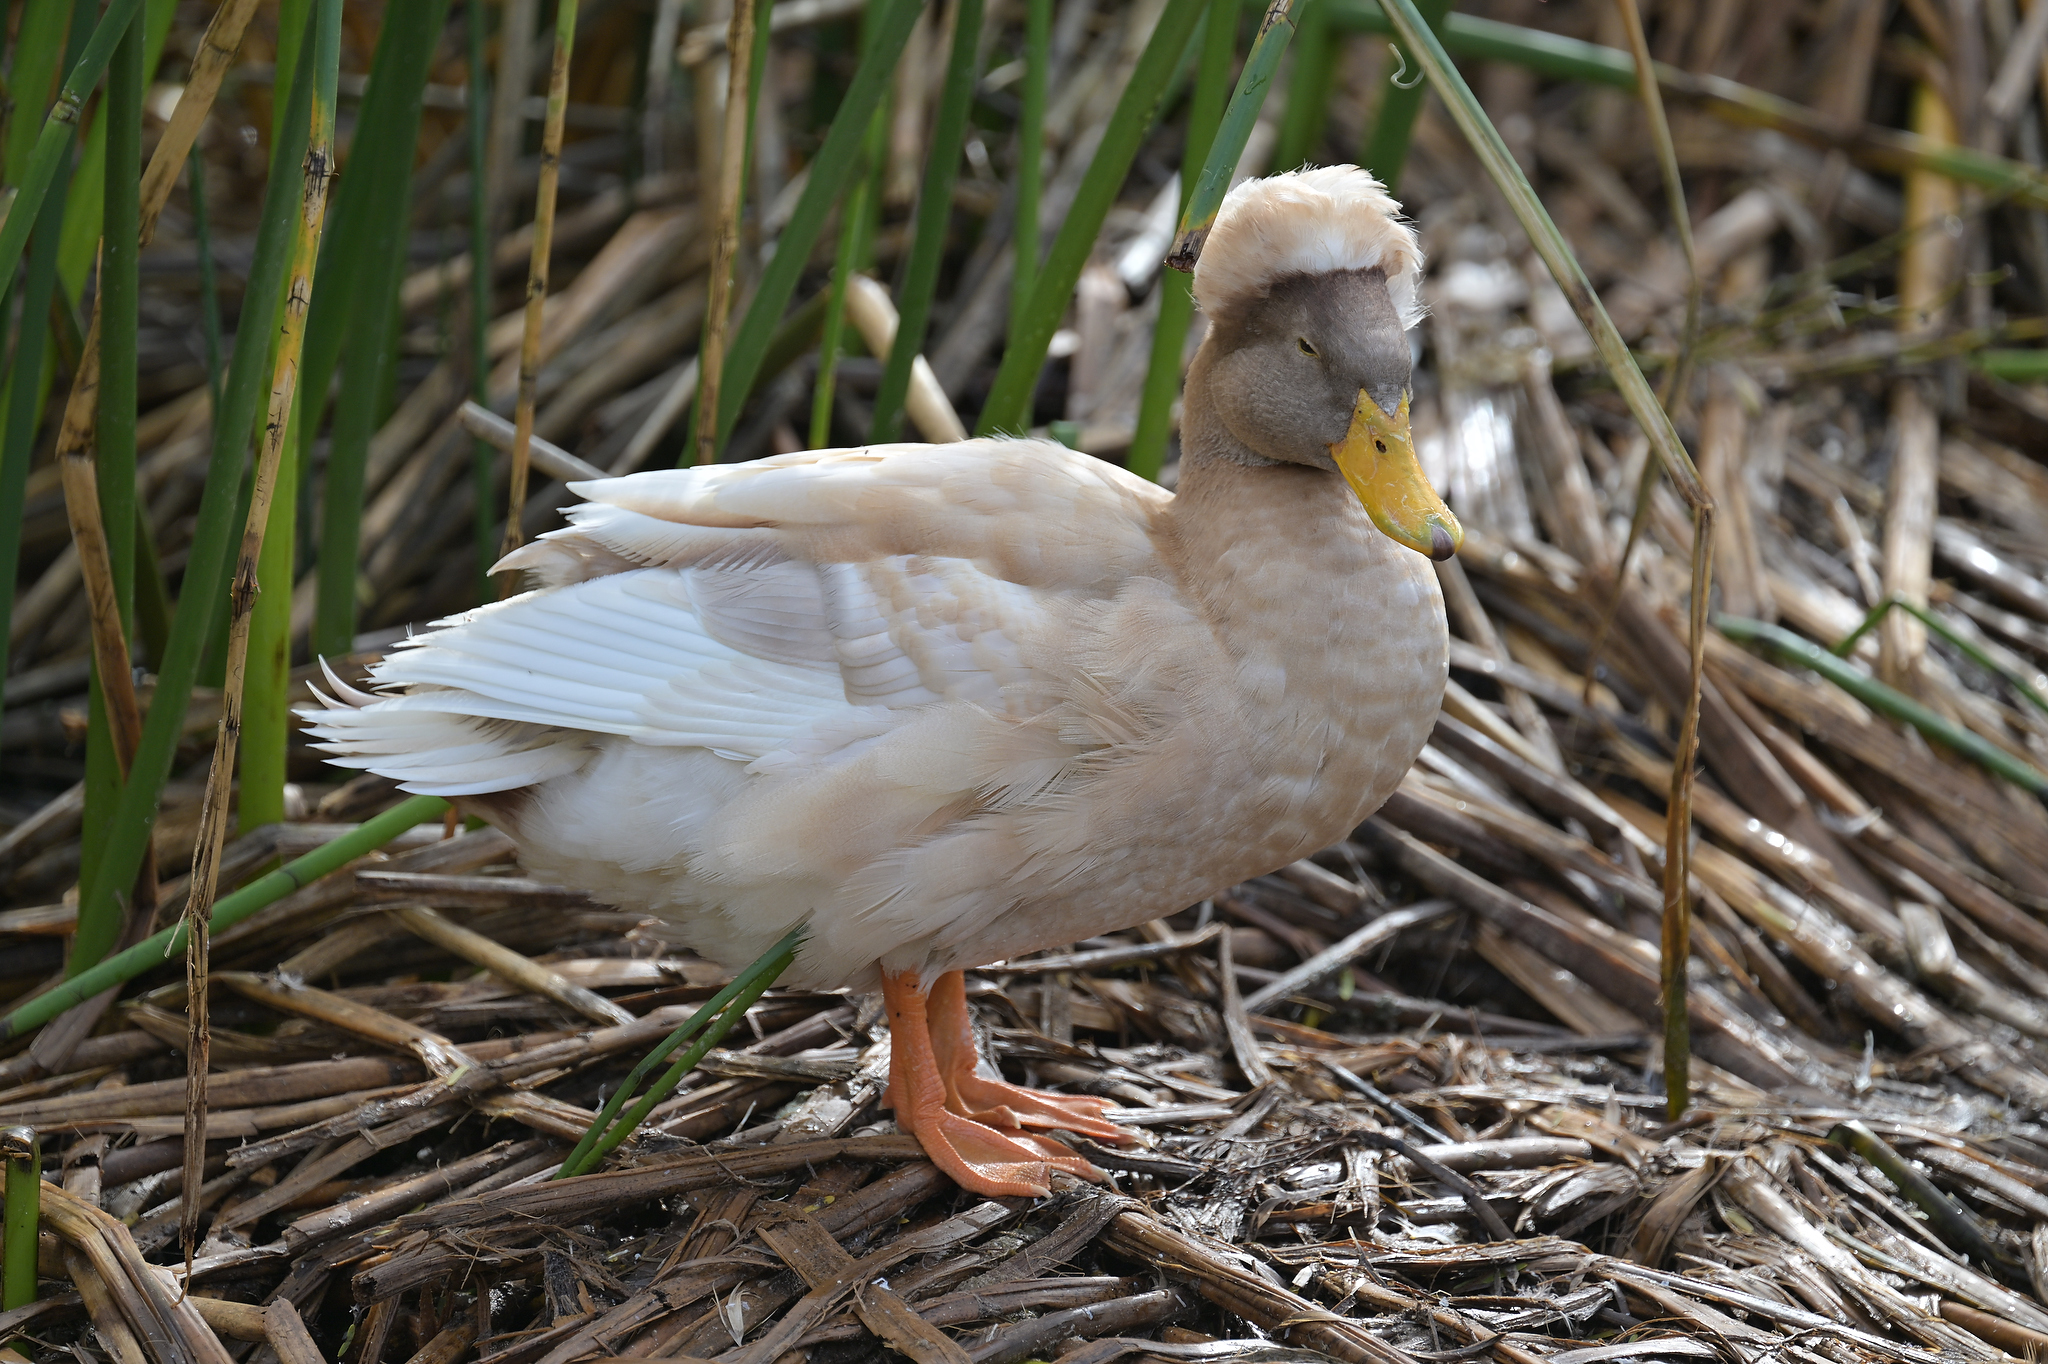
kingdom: Animalia
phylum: Chordata
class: Aves
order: Anseriformes
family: Anatidae
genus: Anas
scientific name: Anas platyrhynchos
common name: Mallard
